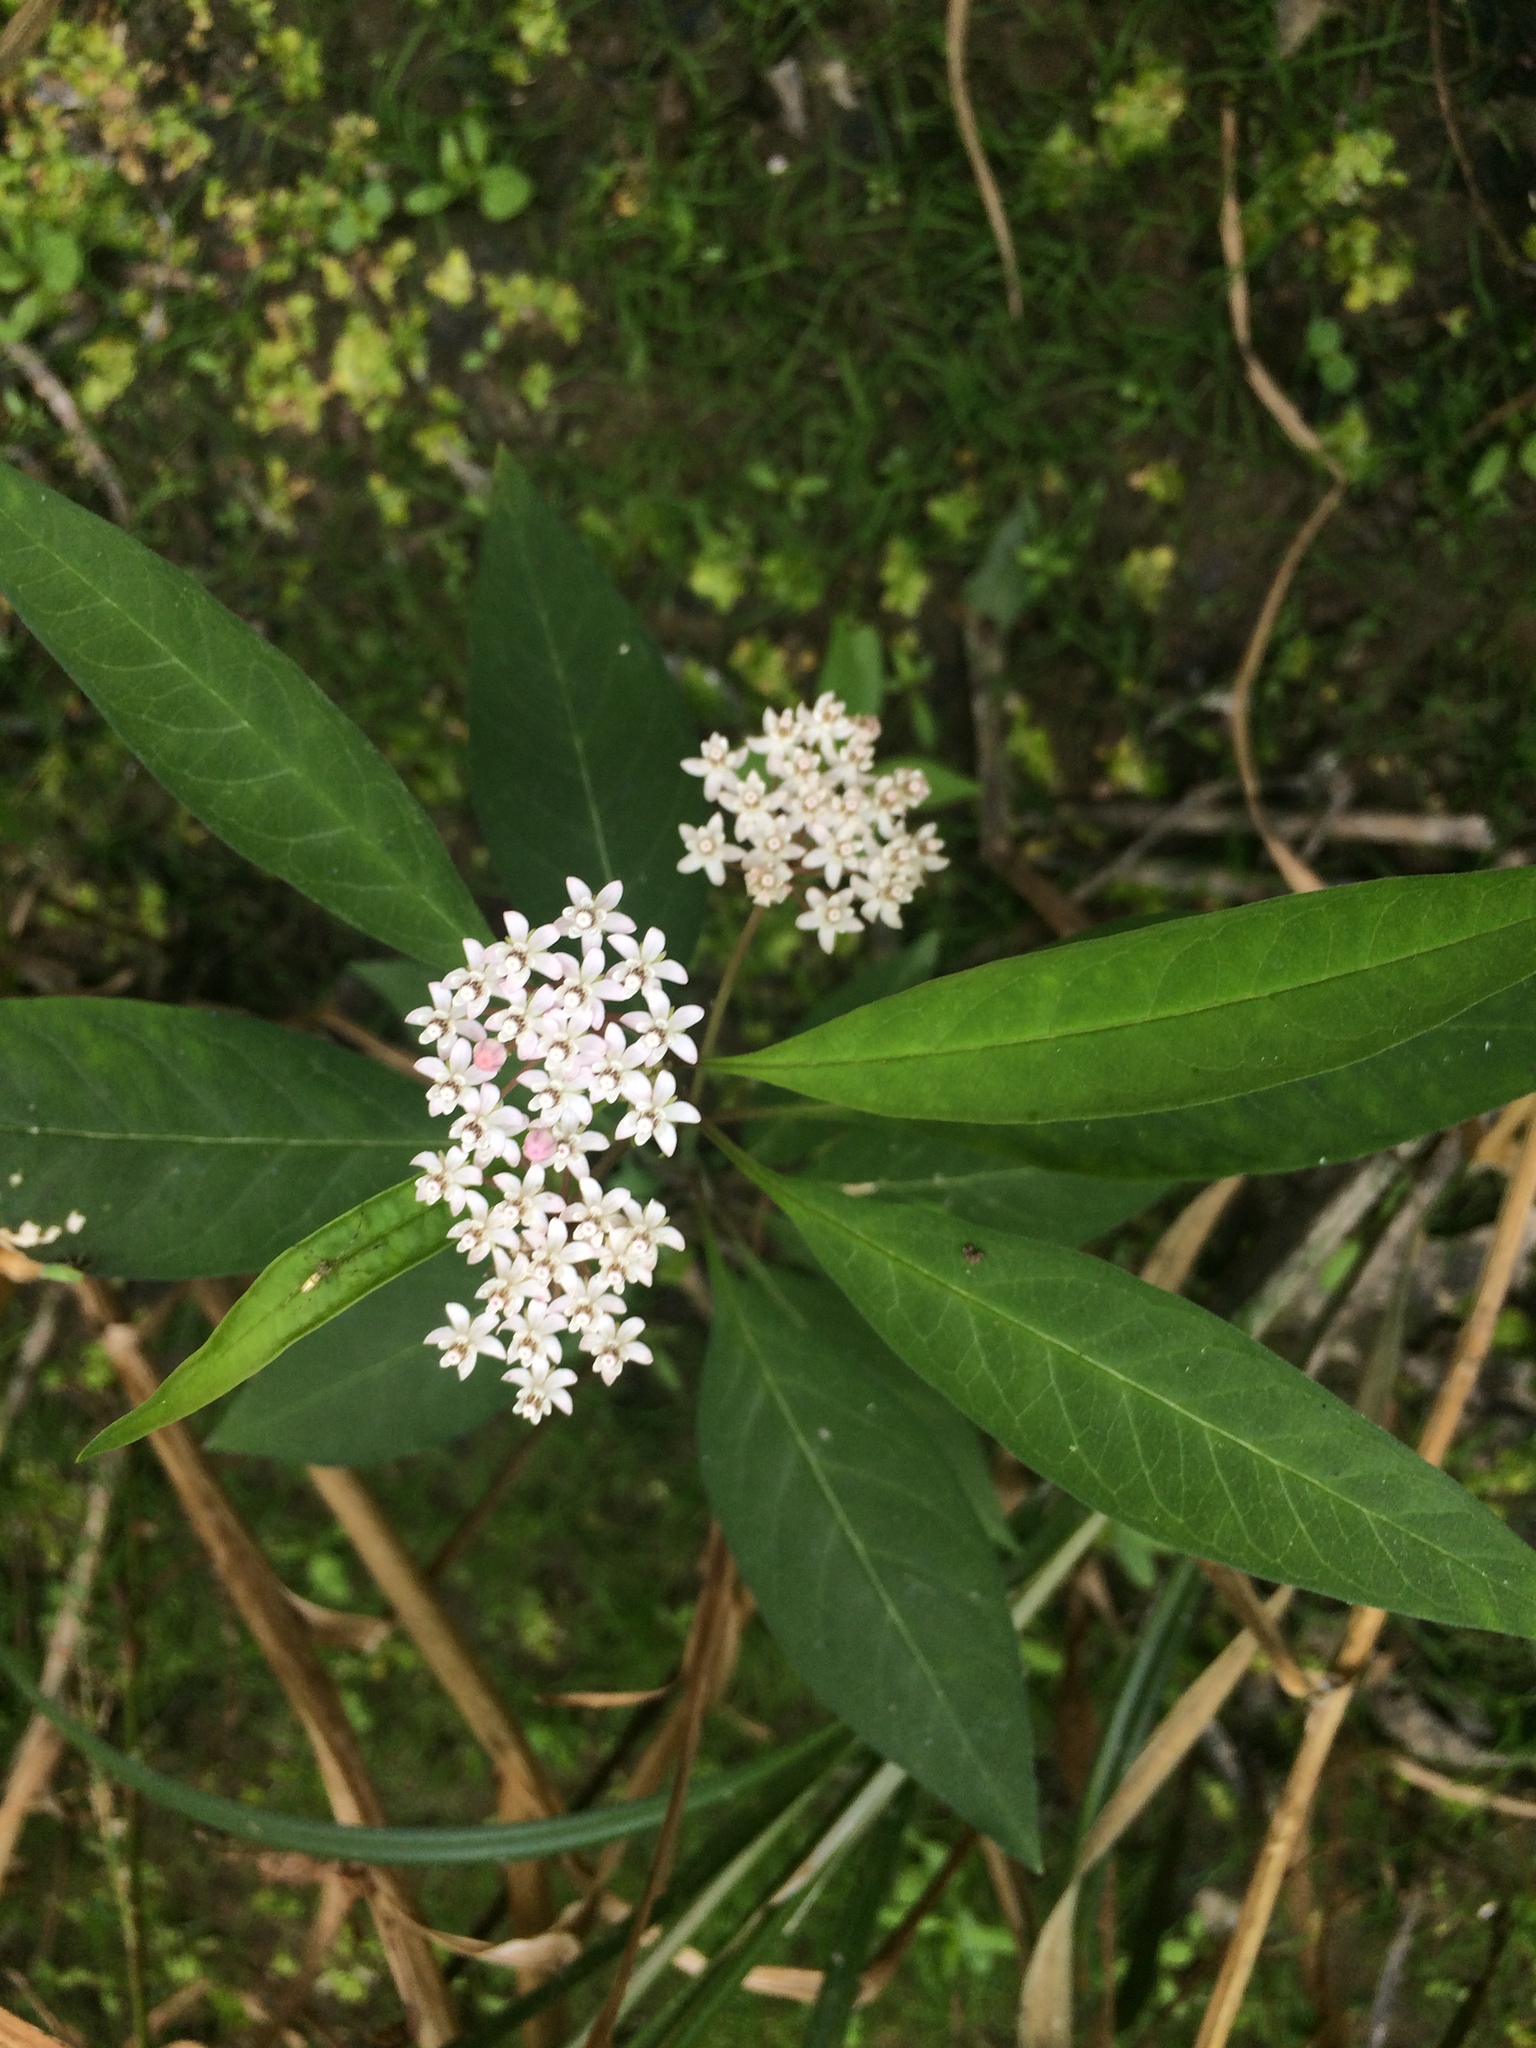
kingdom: Plantae
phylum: Tracheophyta
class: Magnoliopsida
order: Gentianales
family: Apocynaceae
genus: Asclepias
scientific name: Asclepias perennis
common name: Smooth-seed milkweed
